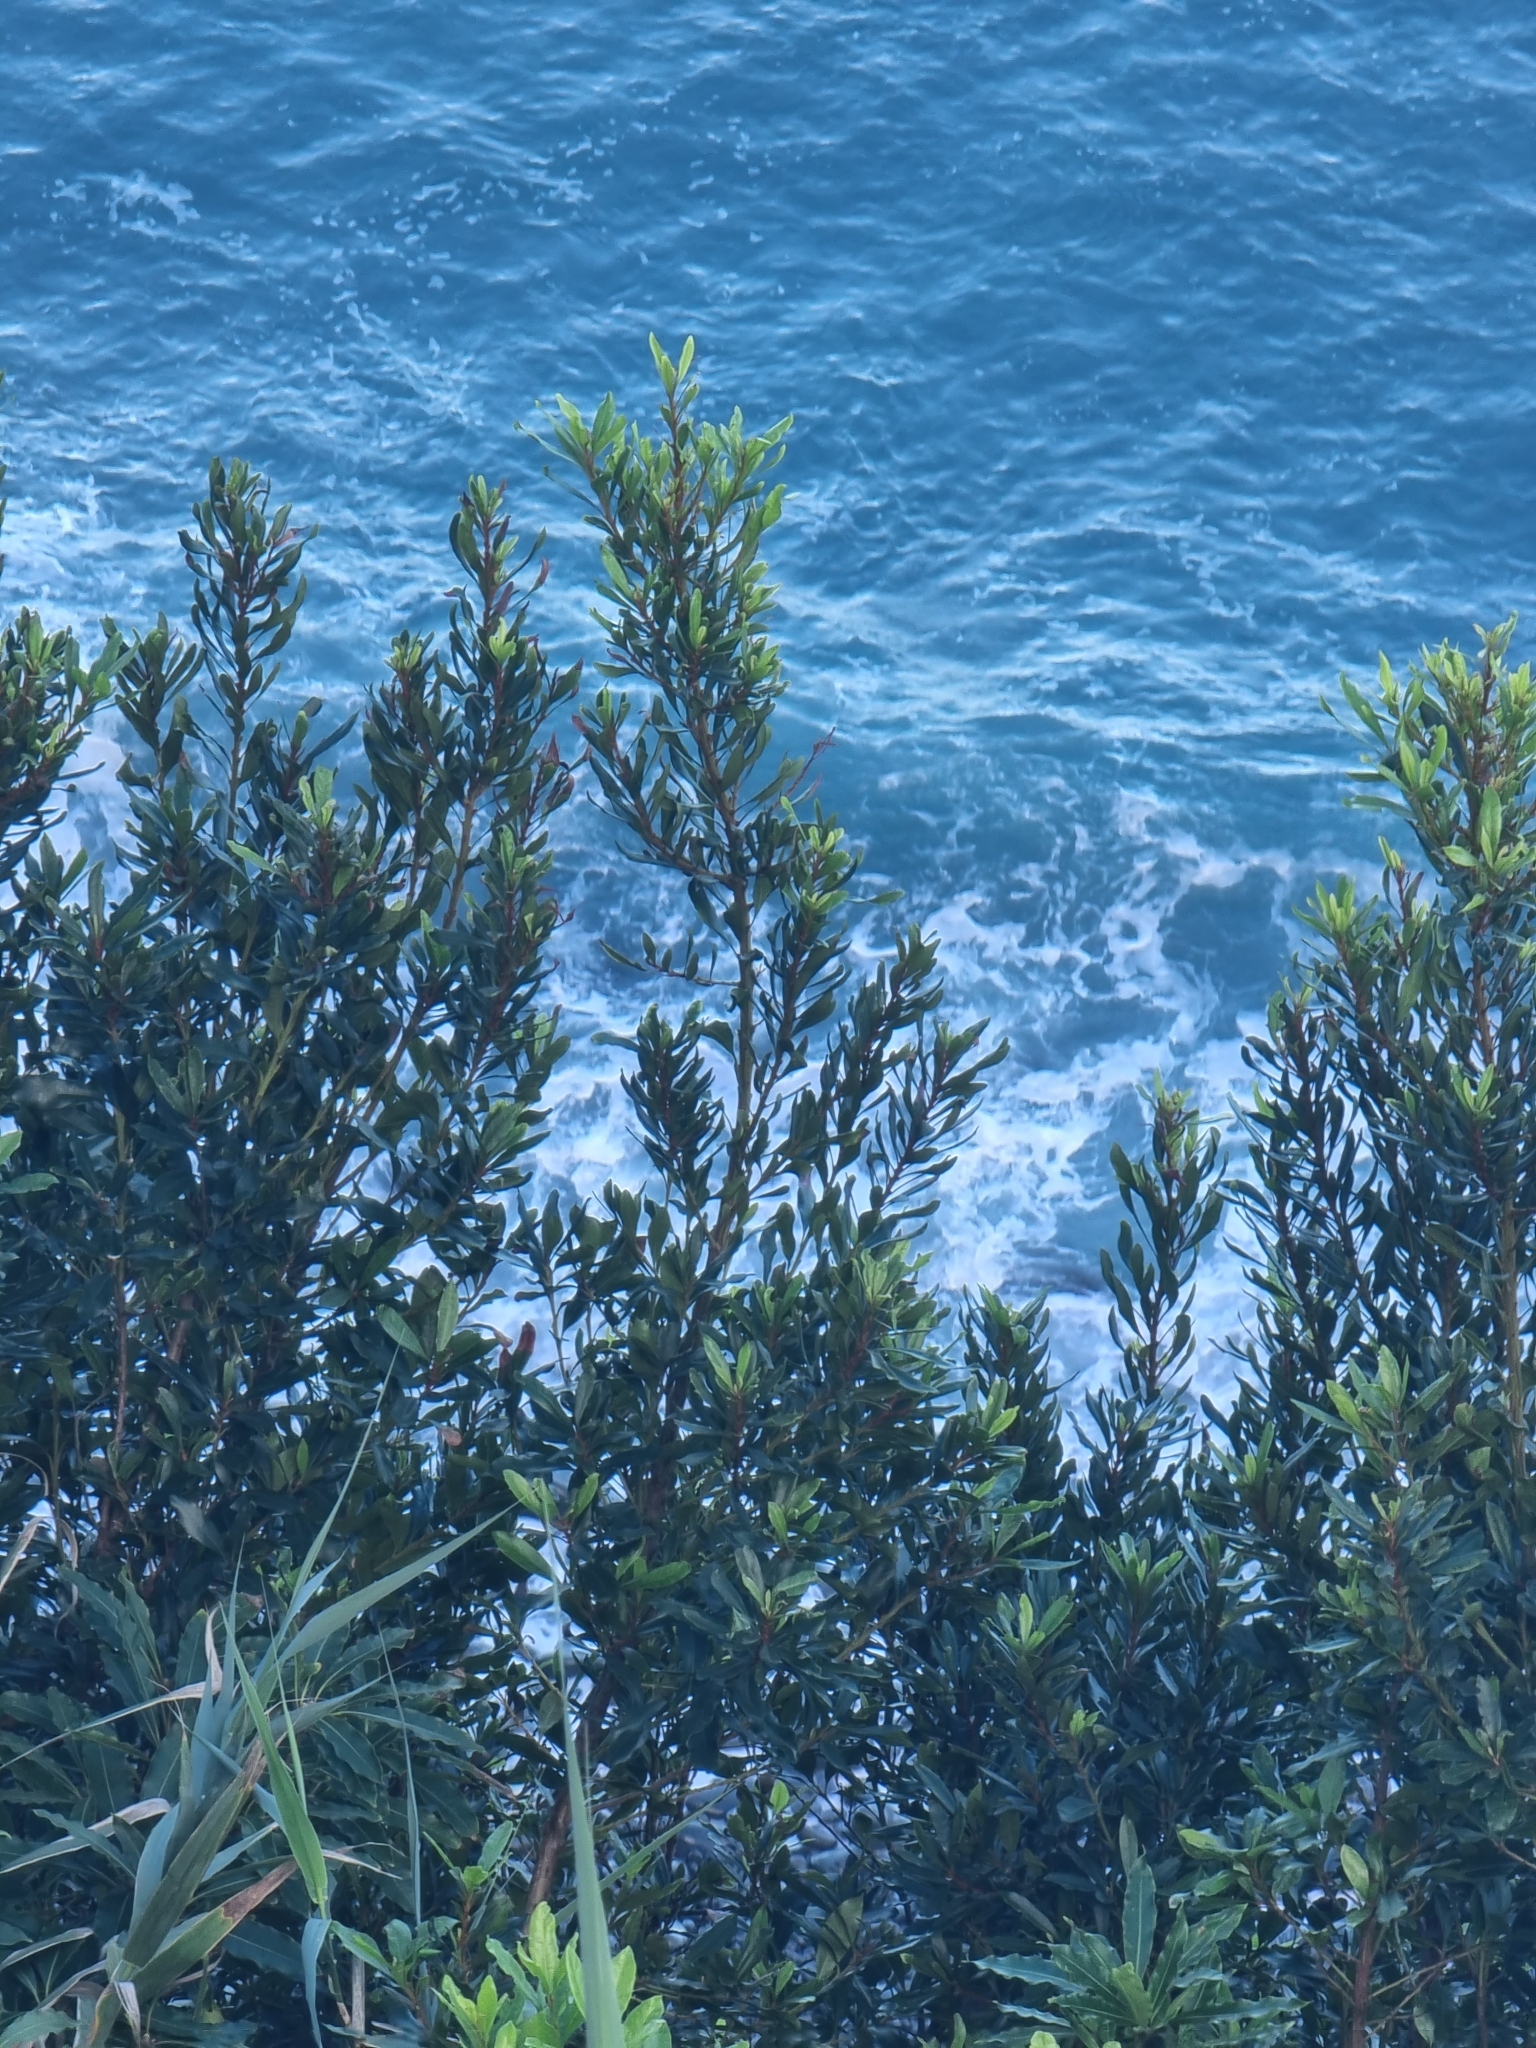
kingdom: Plantae
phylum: Tracheophyta
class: Magnoliopsida
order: Fagales
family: Myricaceae
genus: Morella
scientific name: Morella faya
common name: Firetree
